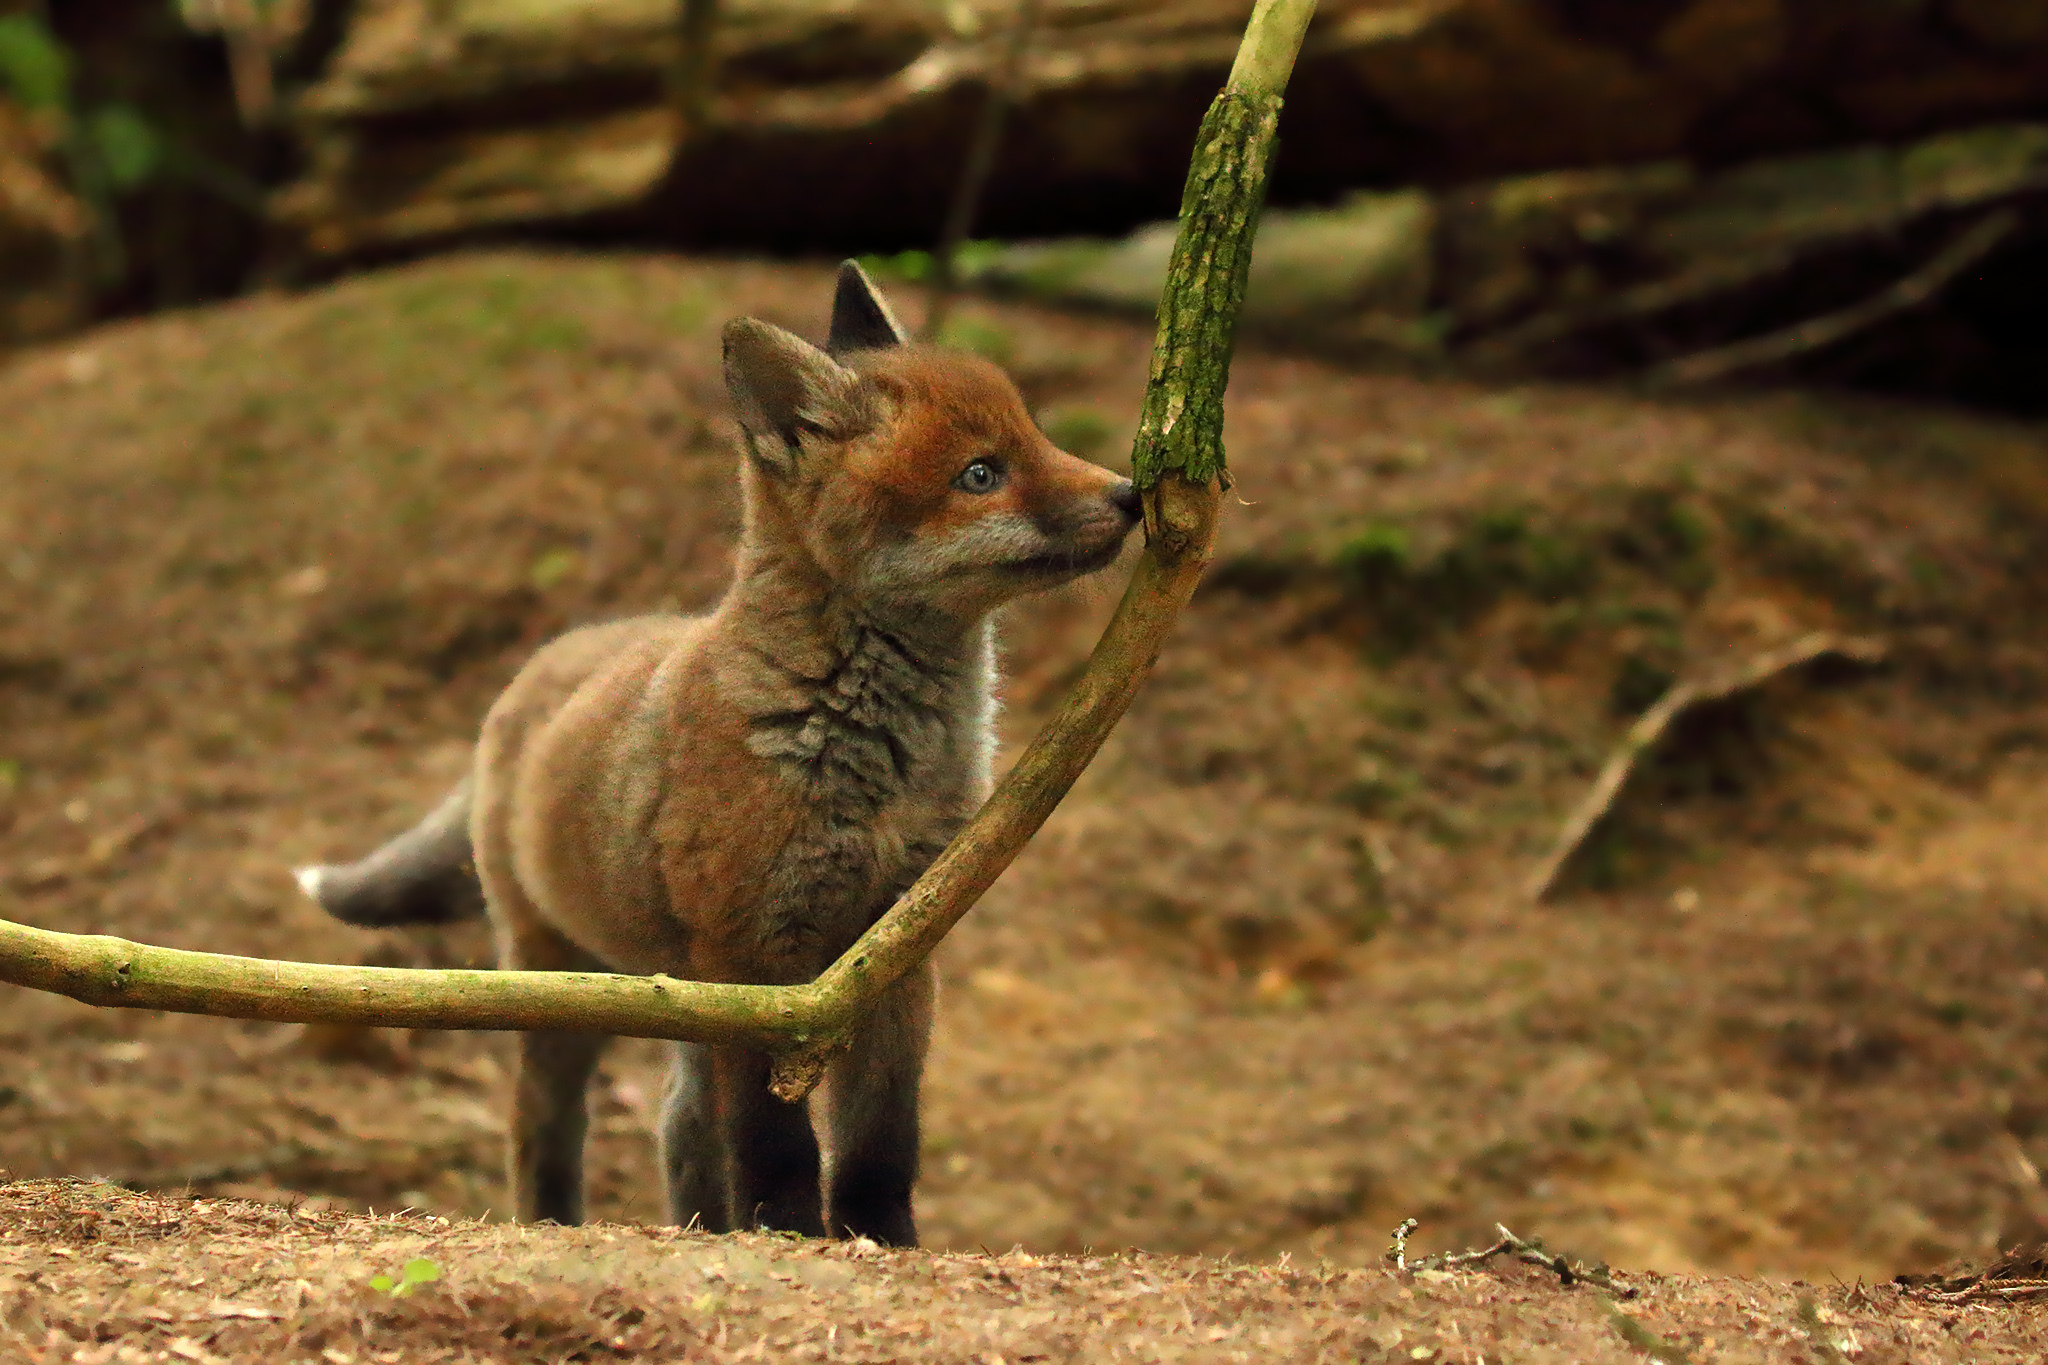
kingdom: Animalia
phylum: Chordata
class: Mammalia
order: Carnivora
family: Canidae
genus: Vulpes
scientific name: Vulpes vulpes
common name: Red fox
